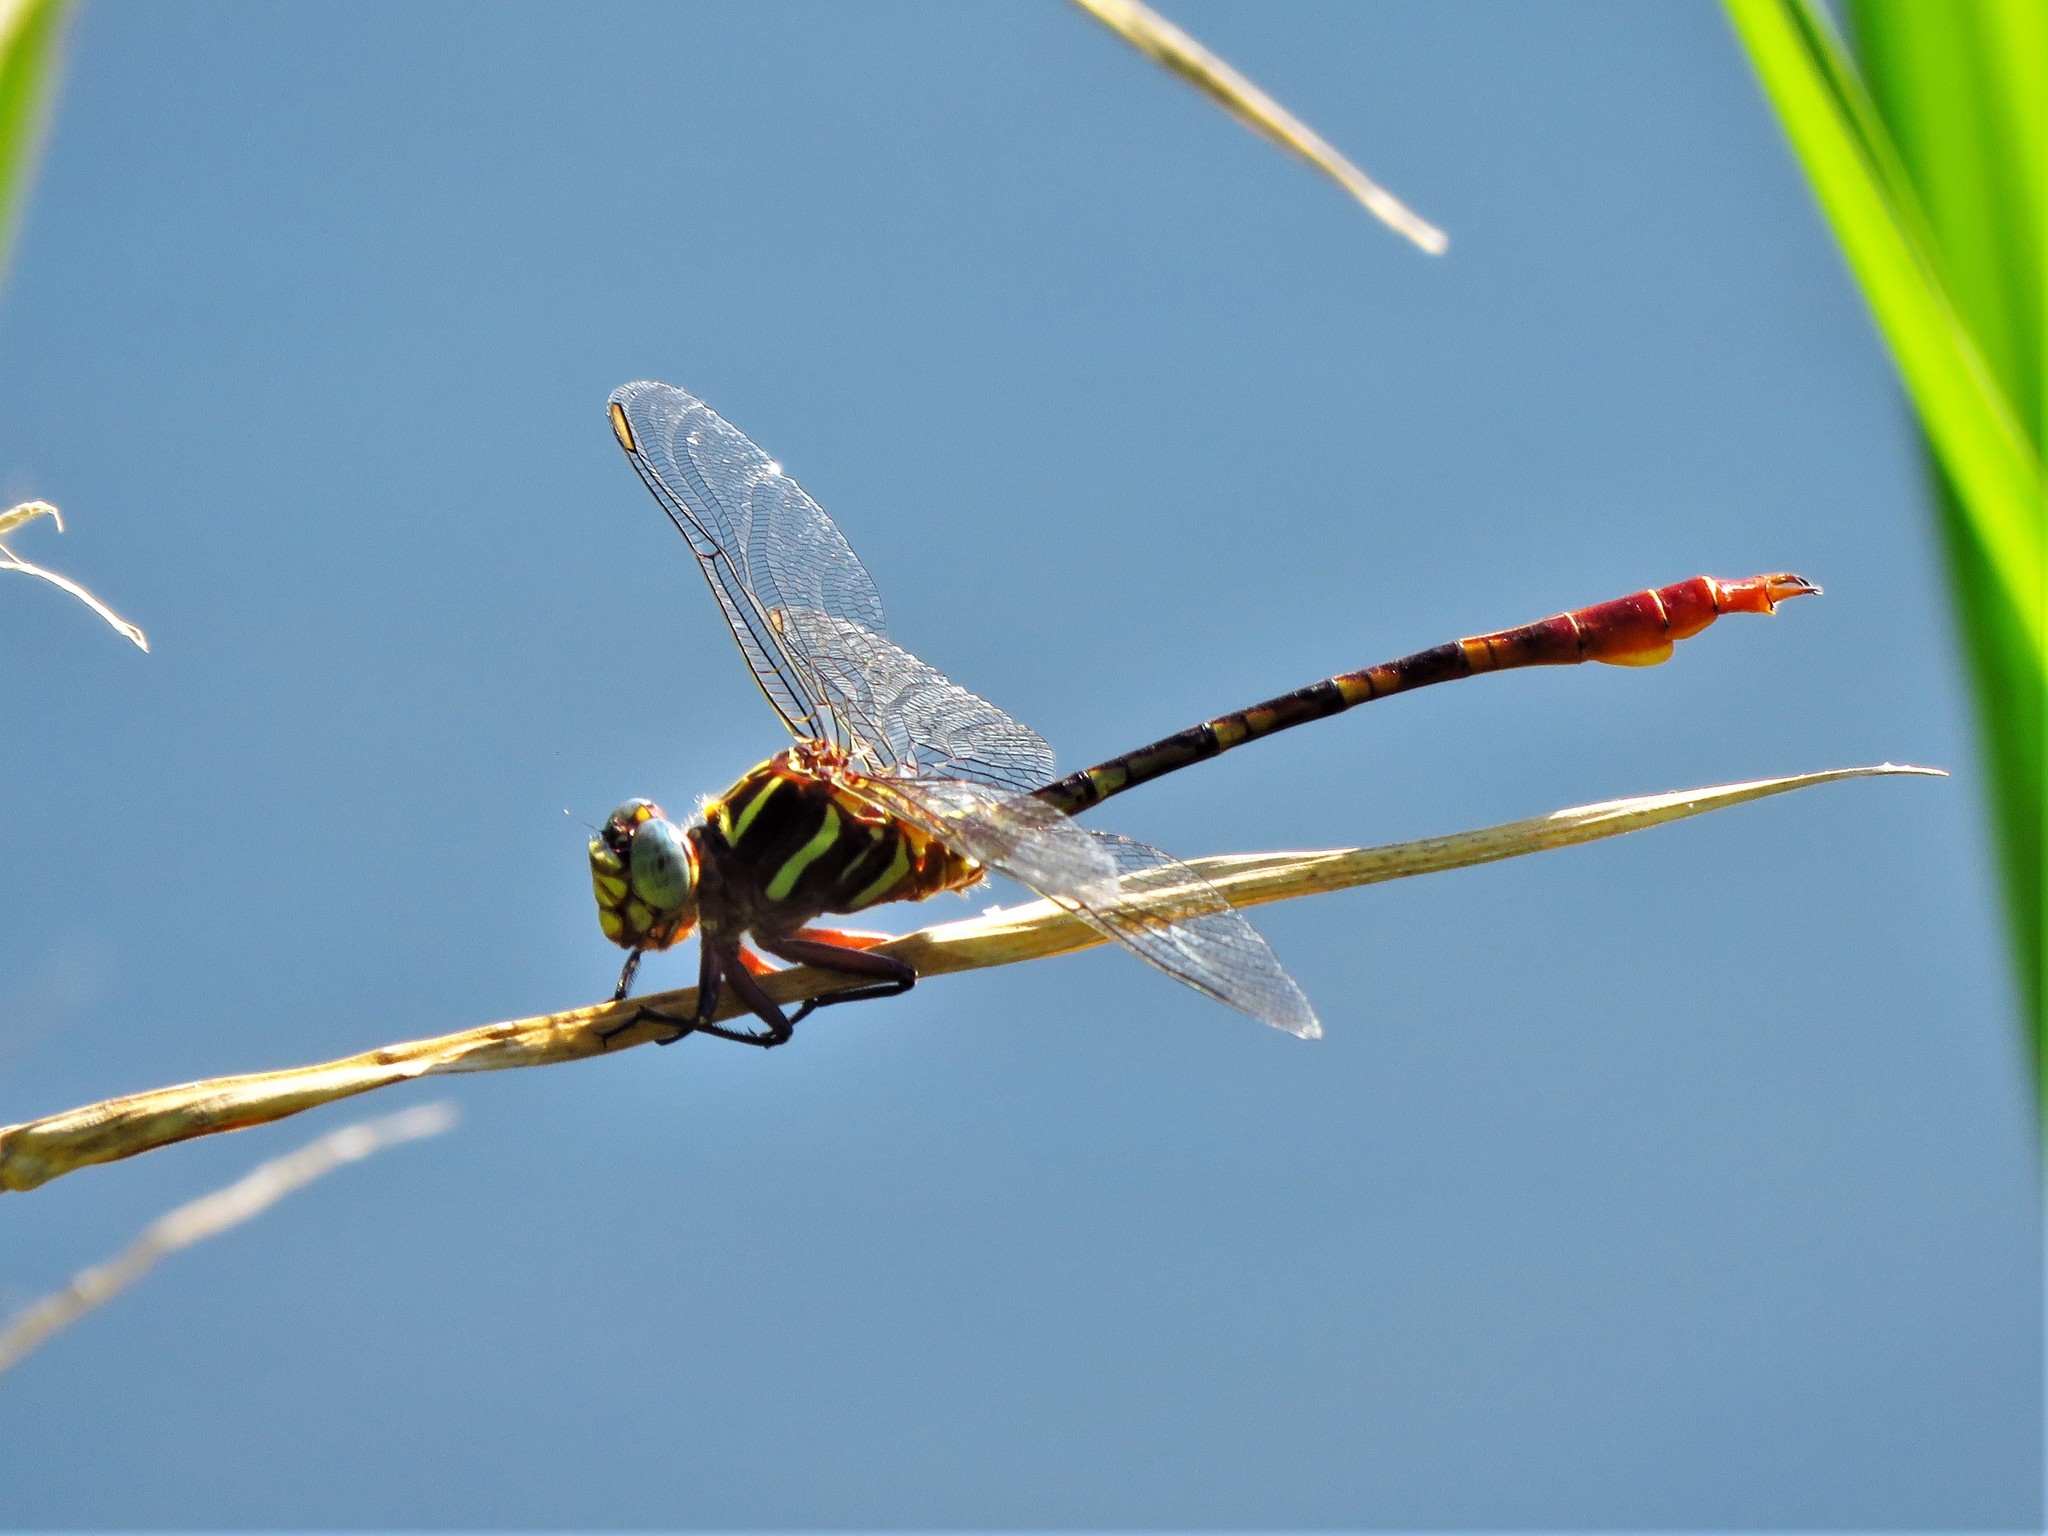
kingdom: Animalia
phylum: Arthropoda
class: Insecta
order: Odonata
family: Gomphidae
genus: Aphylla
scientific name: Aphylla williamsoni
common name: Two-striped forceptail
